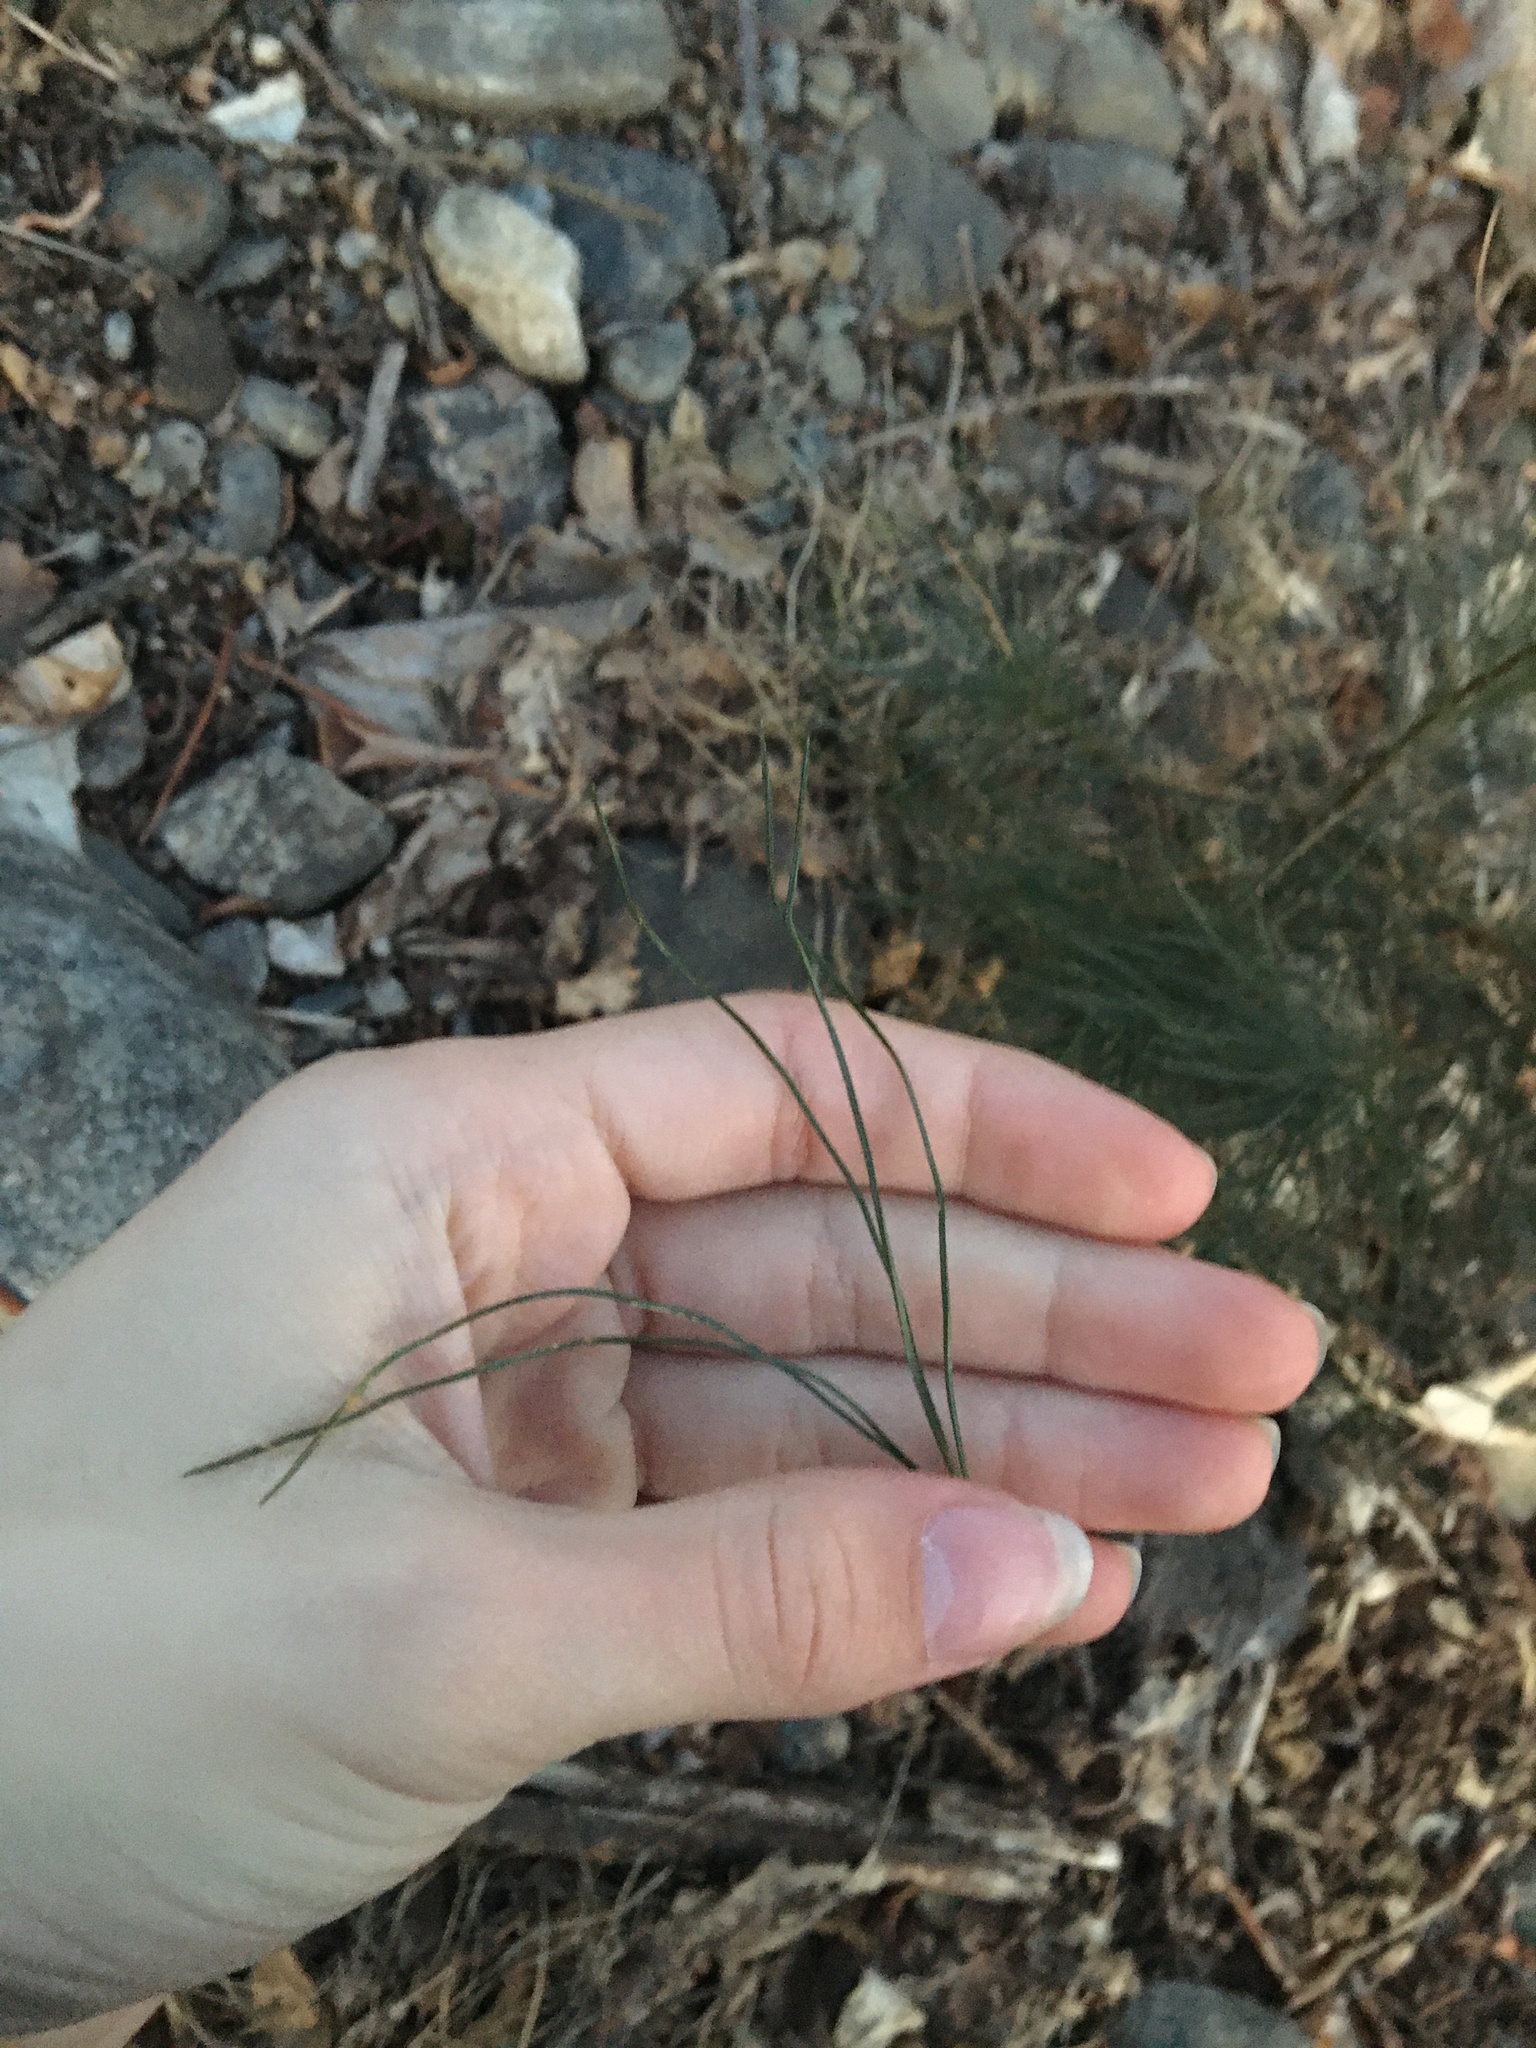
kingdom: Plantae
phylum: Tracheophyta
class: Pinopsida
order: Pinales
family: Pinaceae
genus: Pinus
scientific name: Pinus strobus
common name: Weymouth pine
